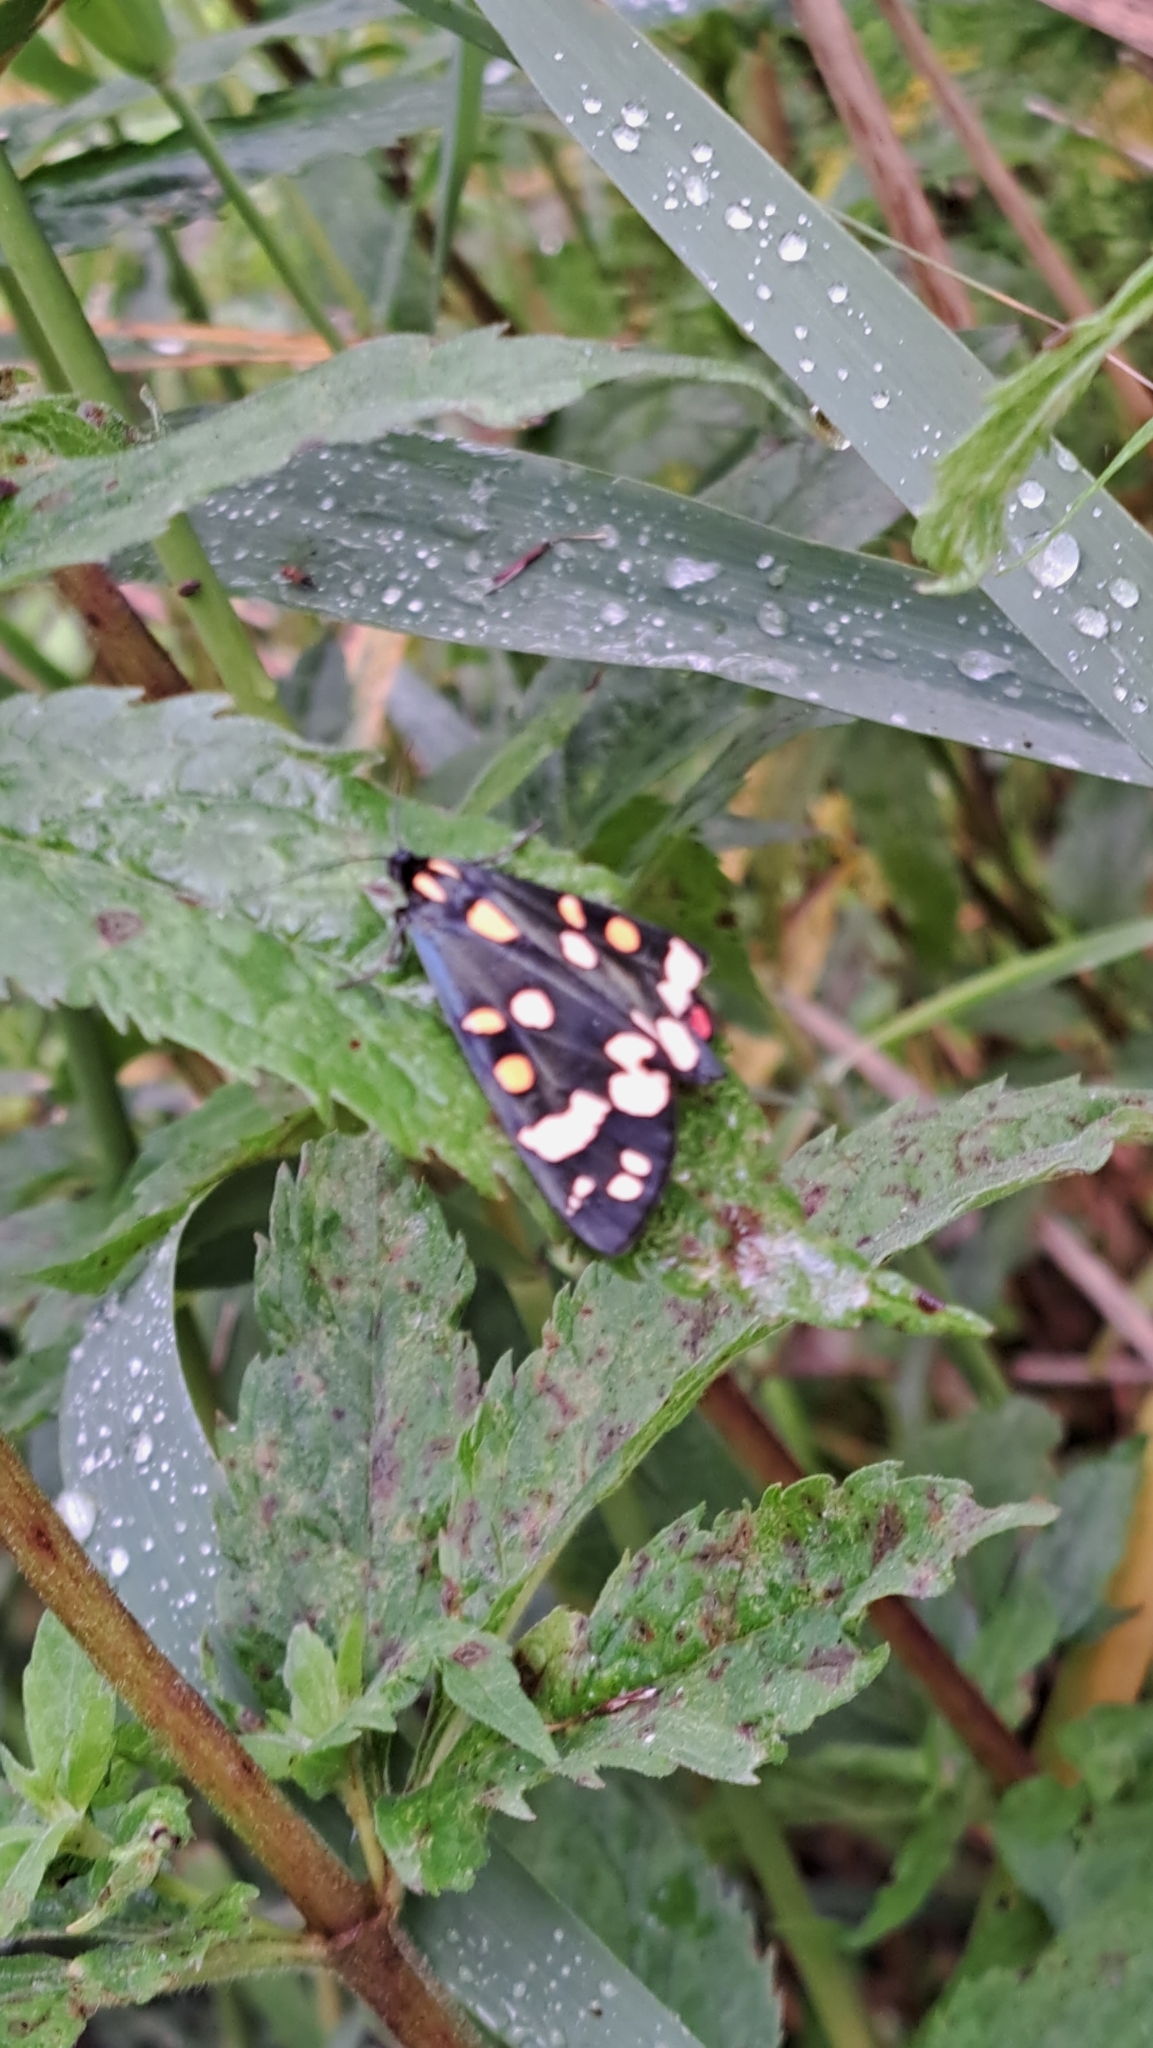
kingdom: Animalia
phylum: Arthropoda
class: Insecta
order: Lepidoptera
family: Erebidae
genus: Callimorpha
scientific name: Callimorpha dominula
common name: Scarlet tiger
